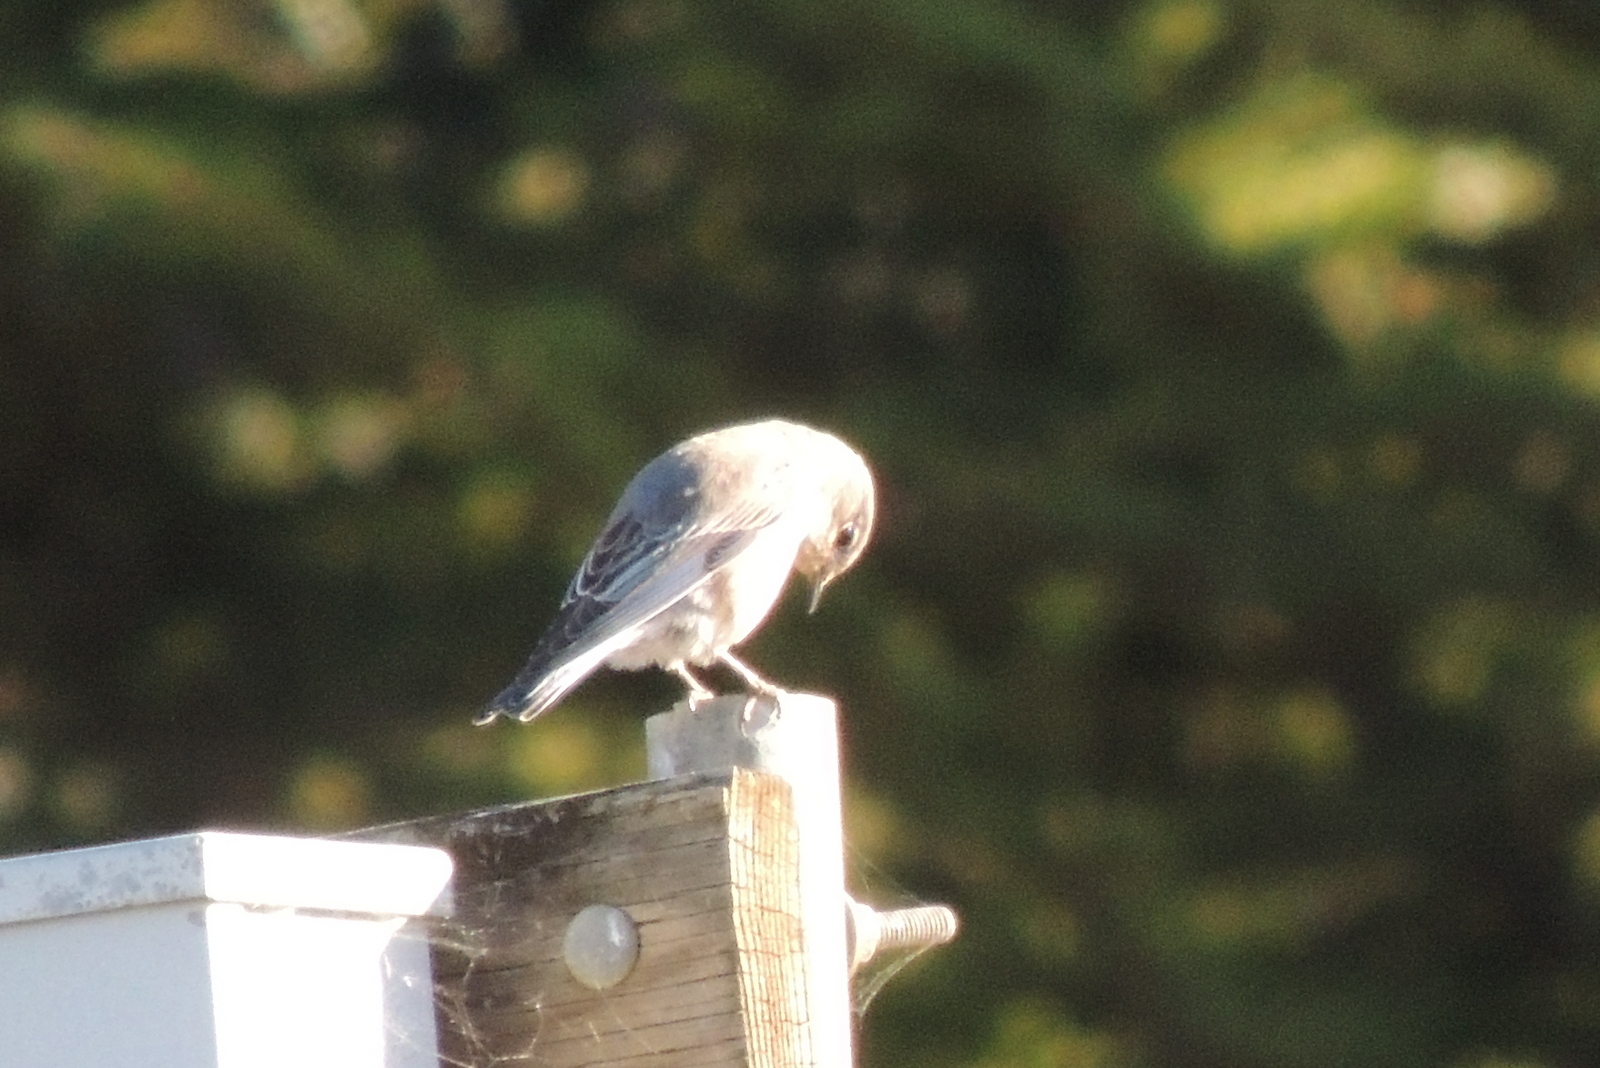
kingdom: Animalia
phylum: Chordata
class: Aves
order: Passeriformes
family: Turdidae
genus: Sialia
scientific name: Sialia mexicana
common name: Western bluebird
